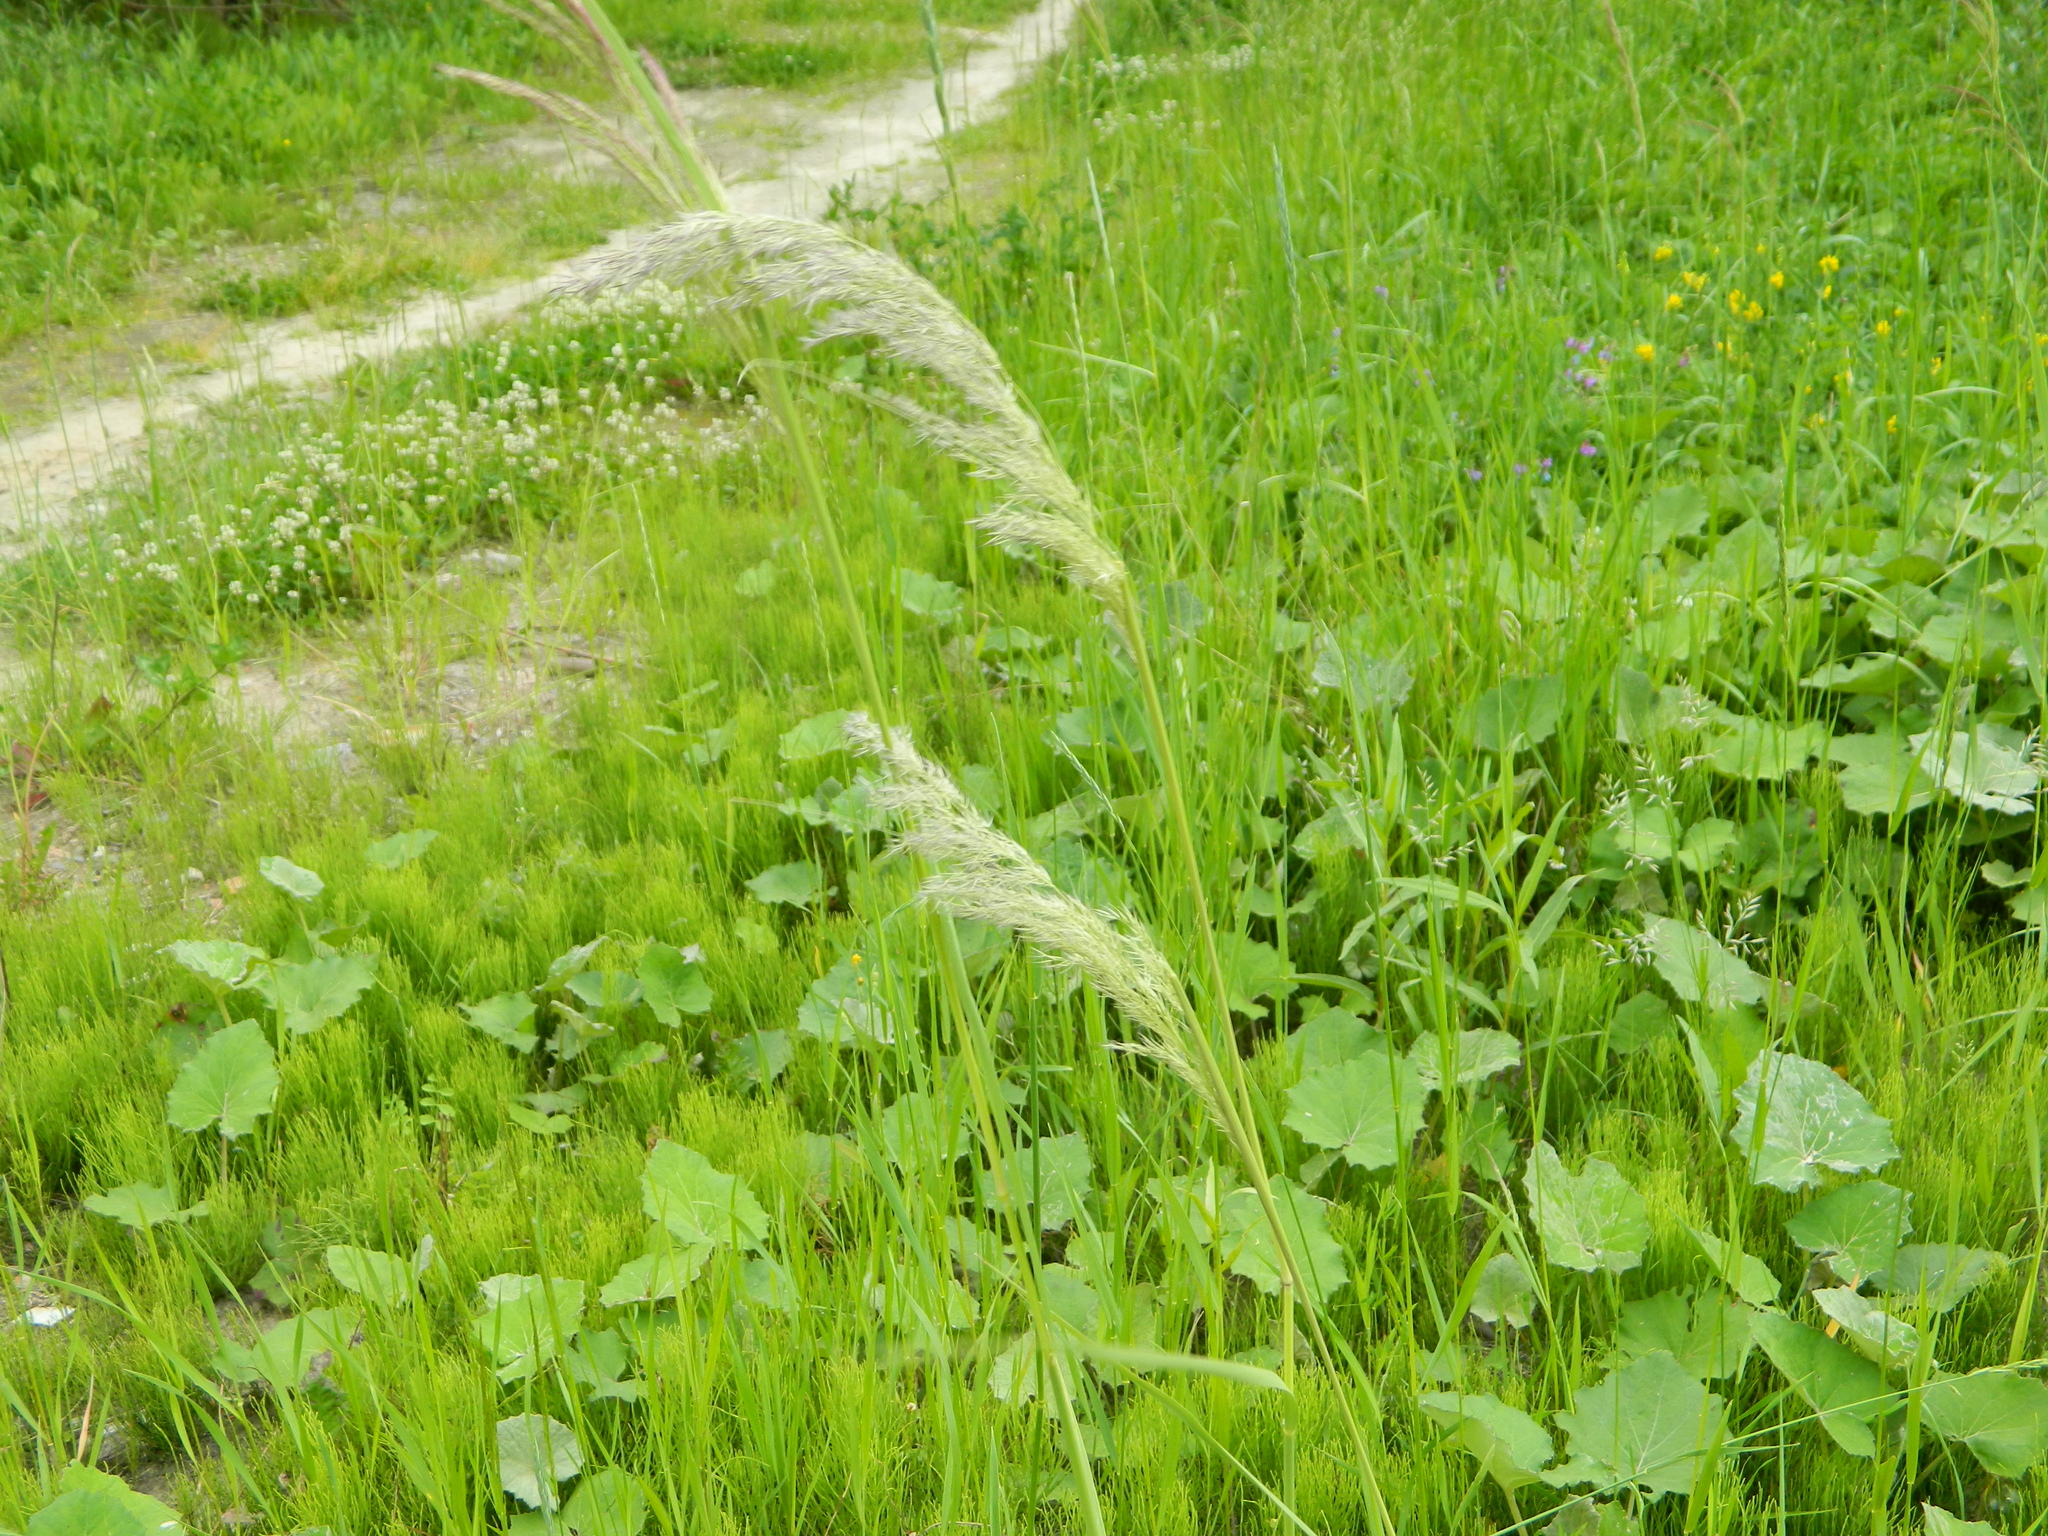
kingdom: Plantae
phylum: Tracheophyta
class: Liliopsida
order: Poales
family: Poaceae
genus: Calamagrostis
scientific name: Calamagrostis epigejos
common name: Wood small-reed
